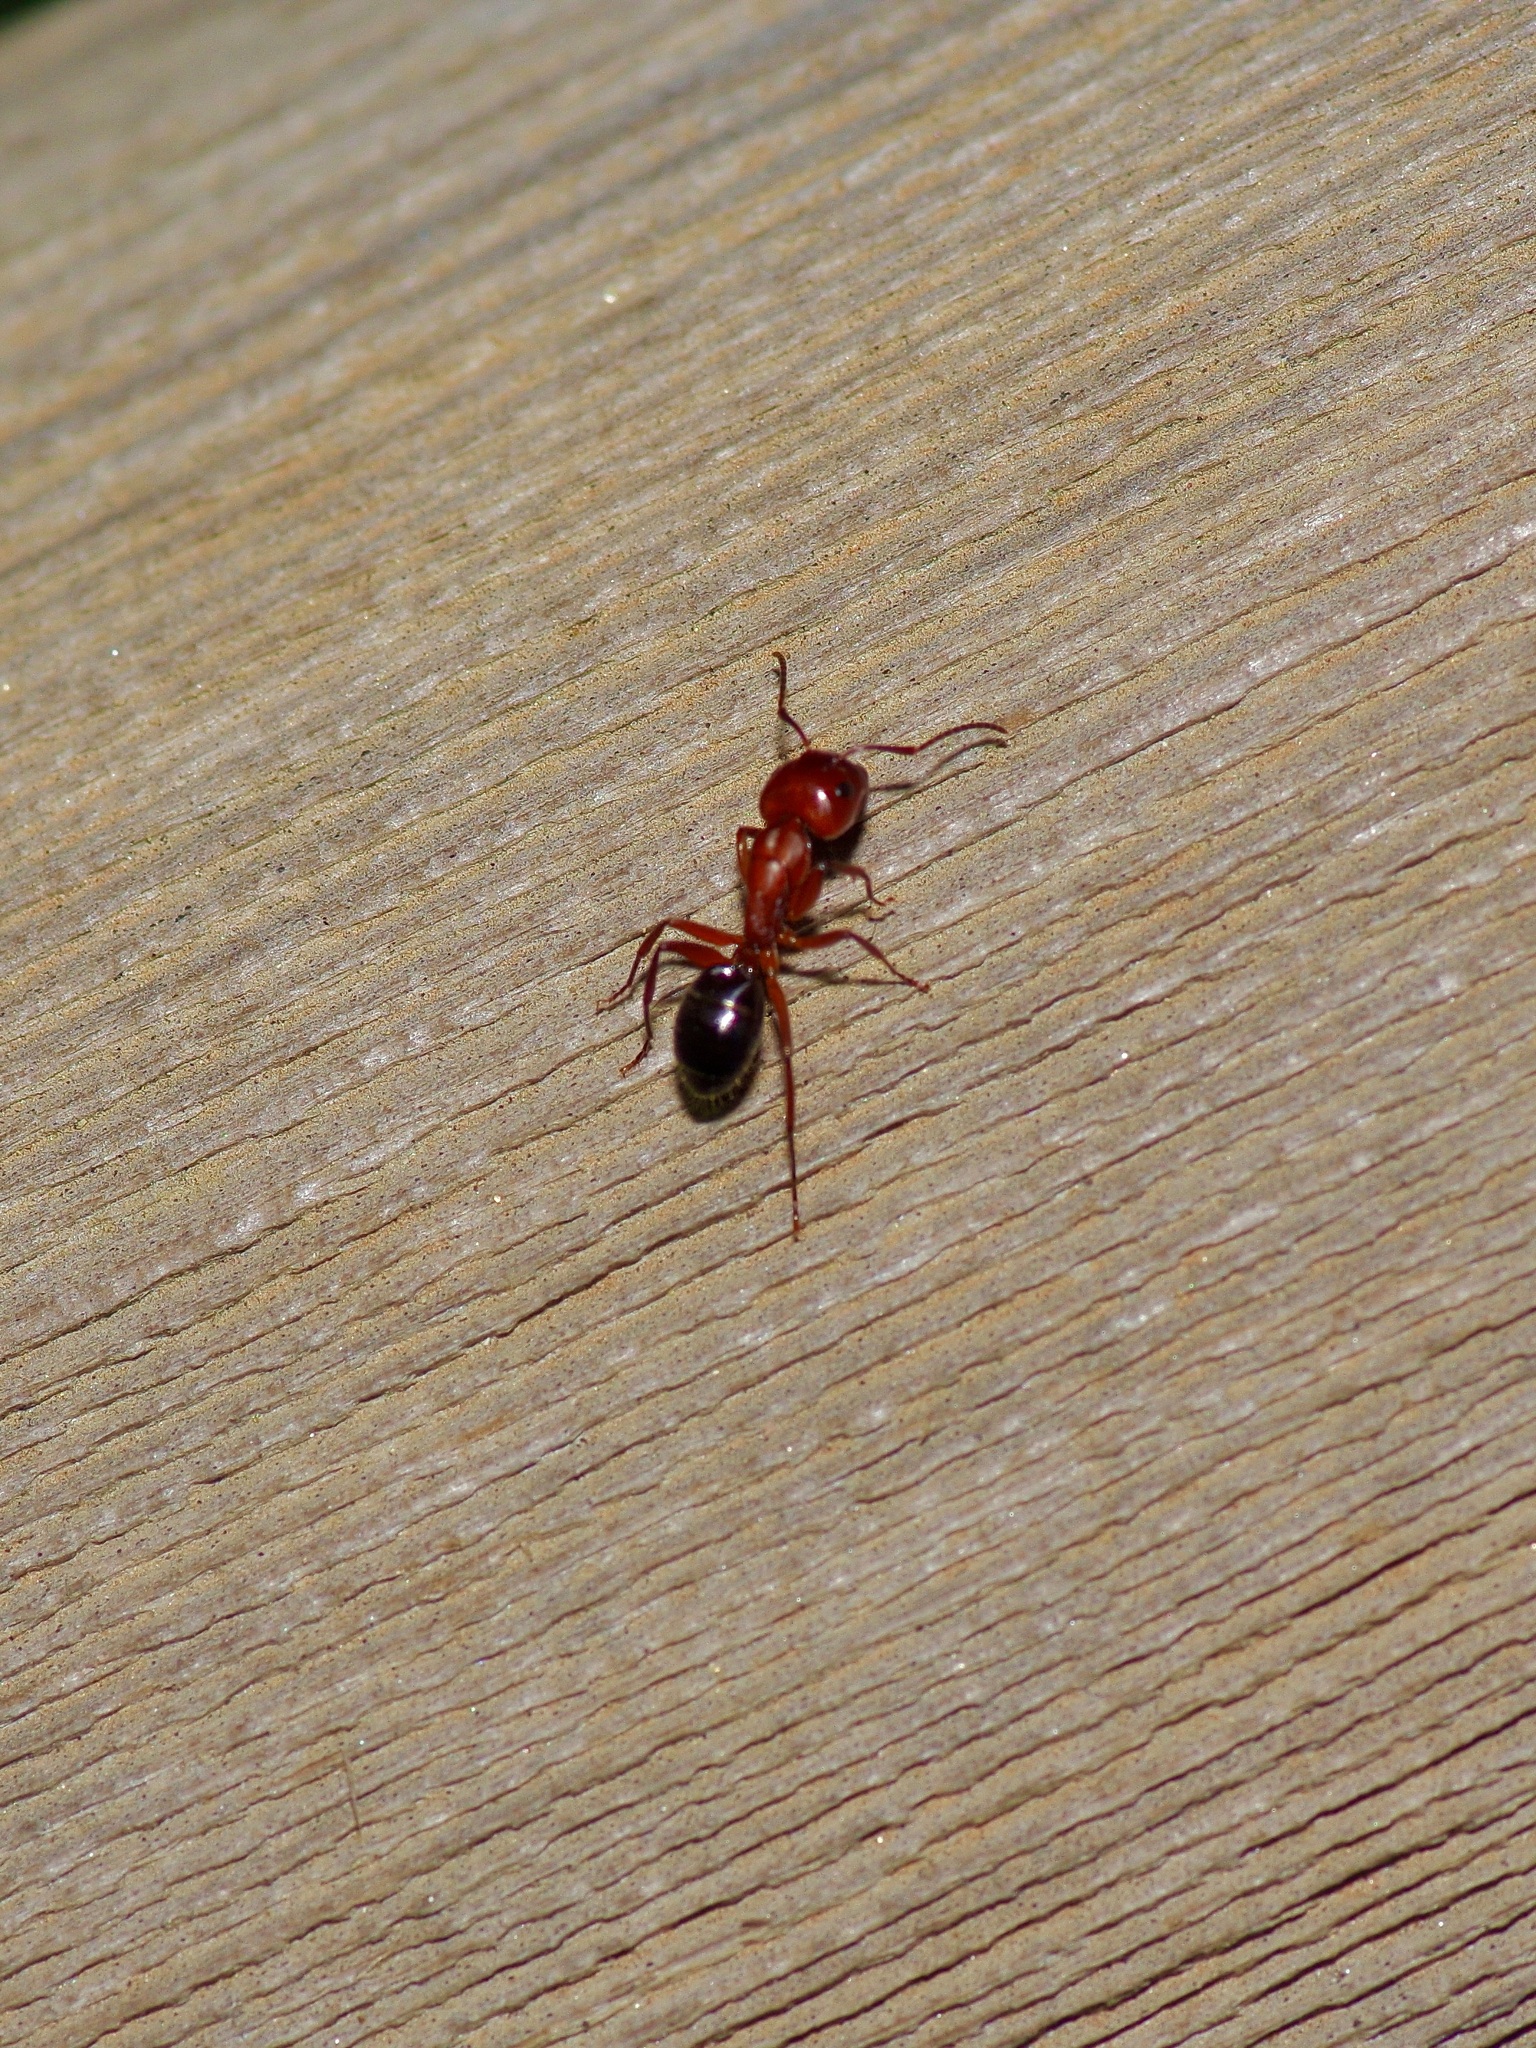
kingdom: Animalia
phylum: Arthropoda
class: Insecta
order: Hymenoptera
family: Formicidae
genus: Camponotus
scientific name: Camponotus decipiens
